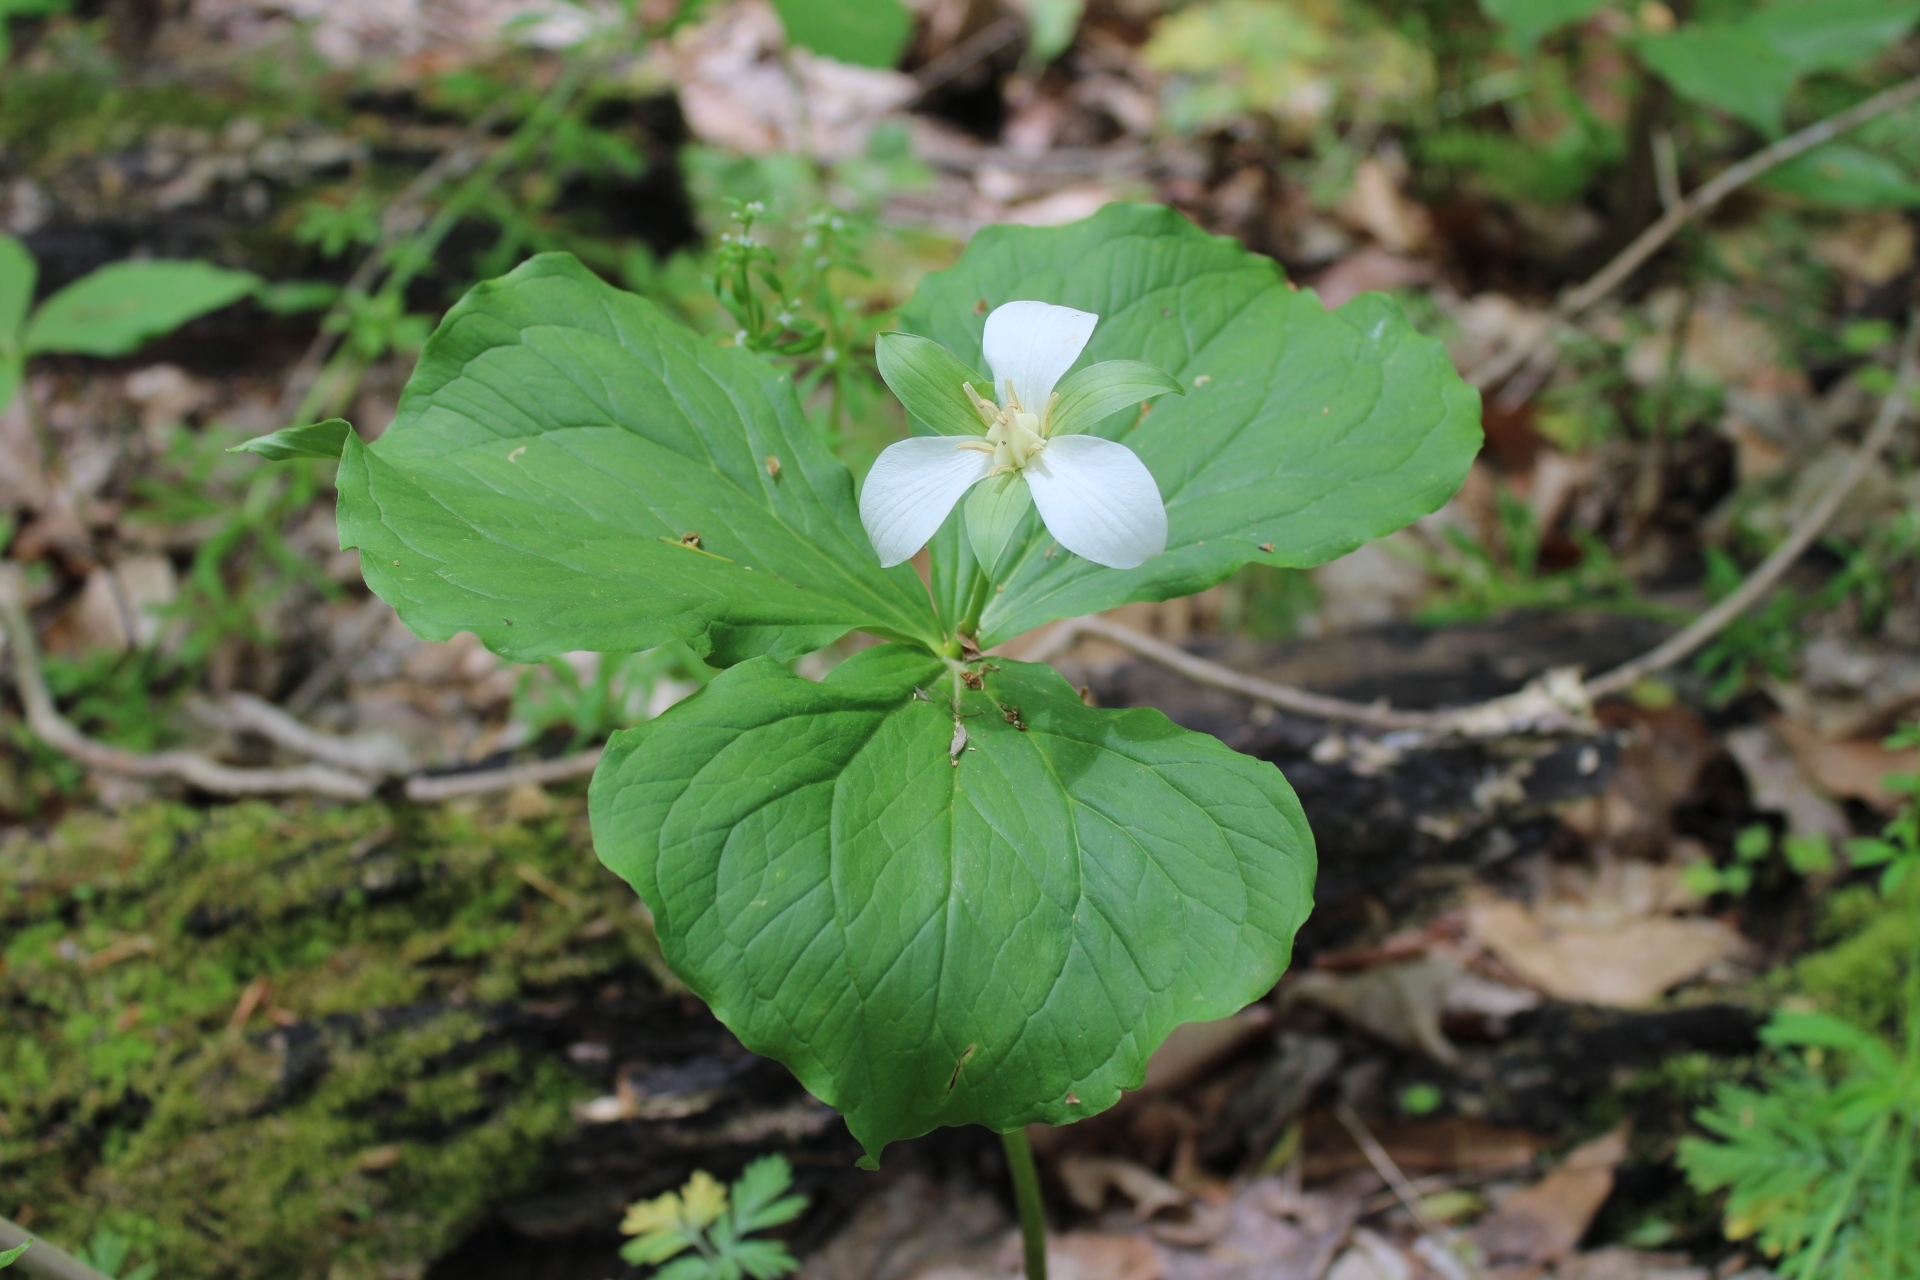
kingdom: Plantae
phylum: Tracheophyta
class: Liliopsida
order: Liliales
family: Melanthiaceae
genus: Trillium
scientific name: Trillium flexipes
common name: Drooping trillium
